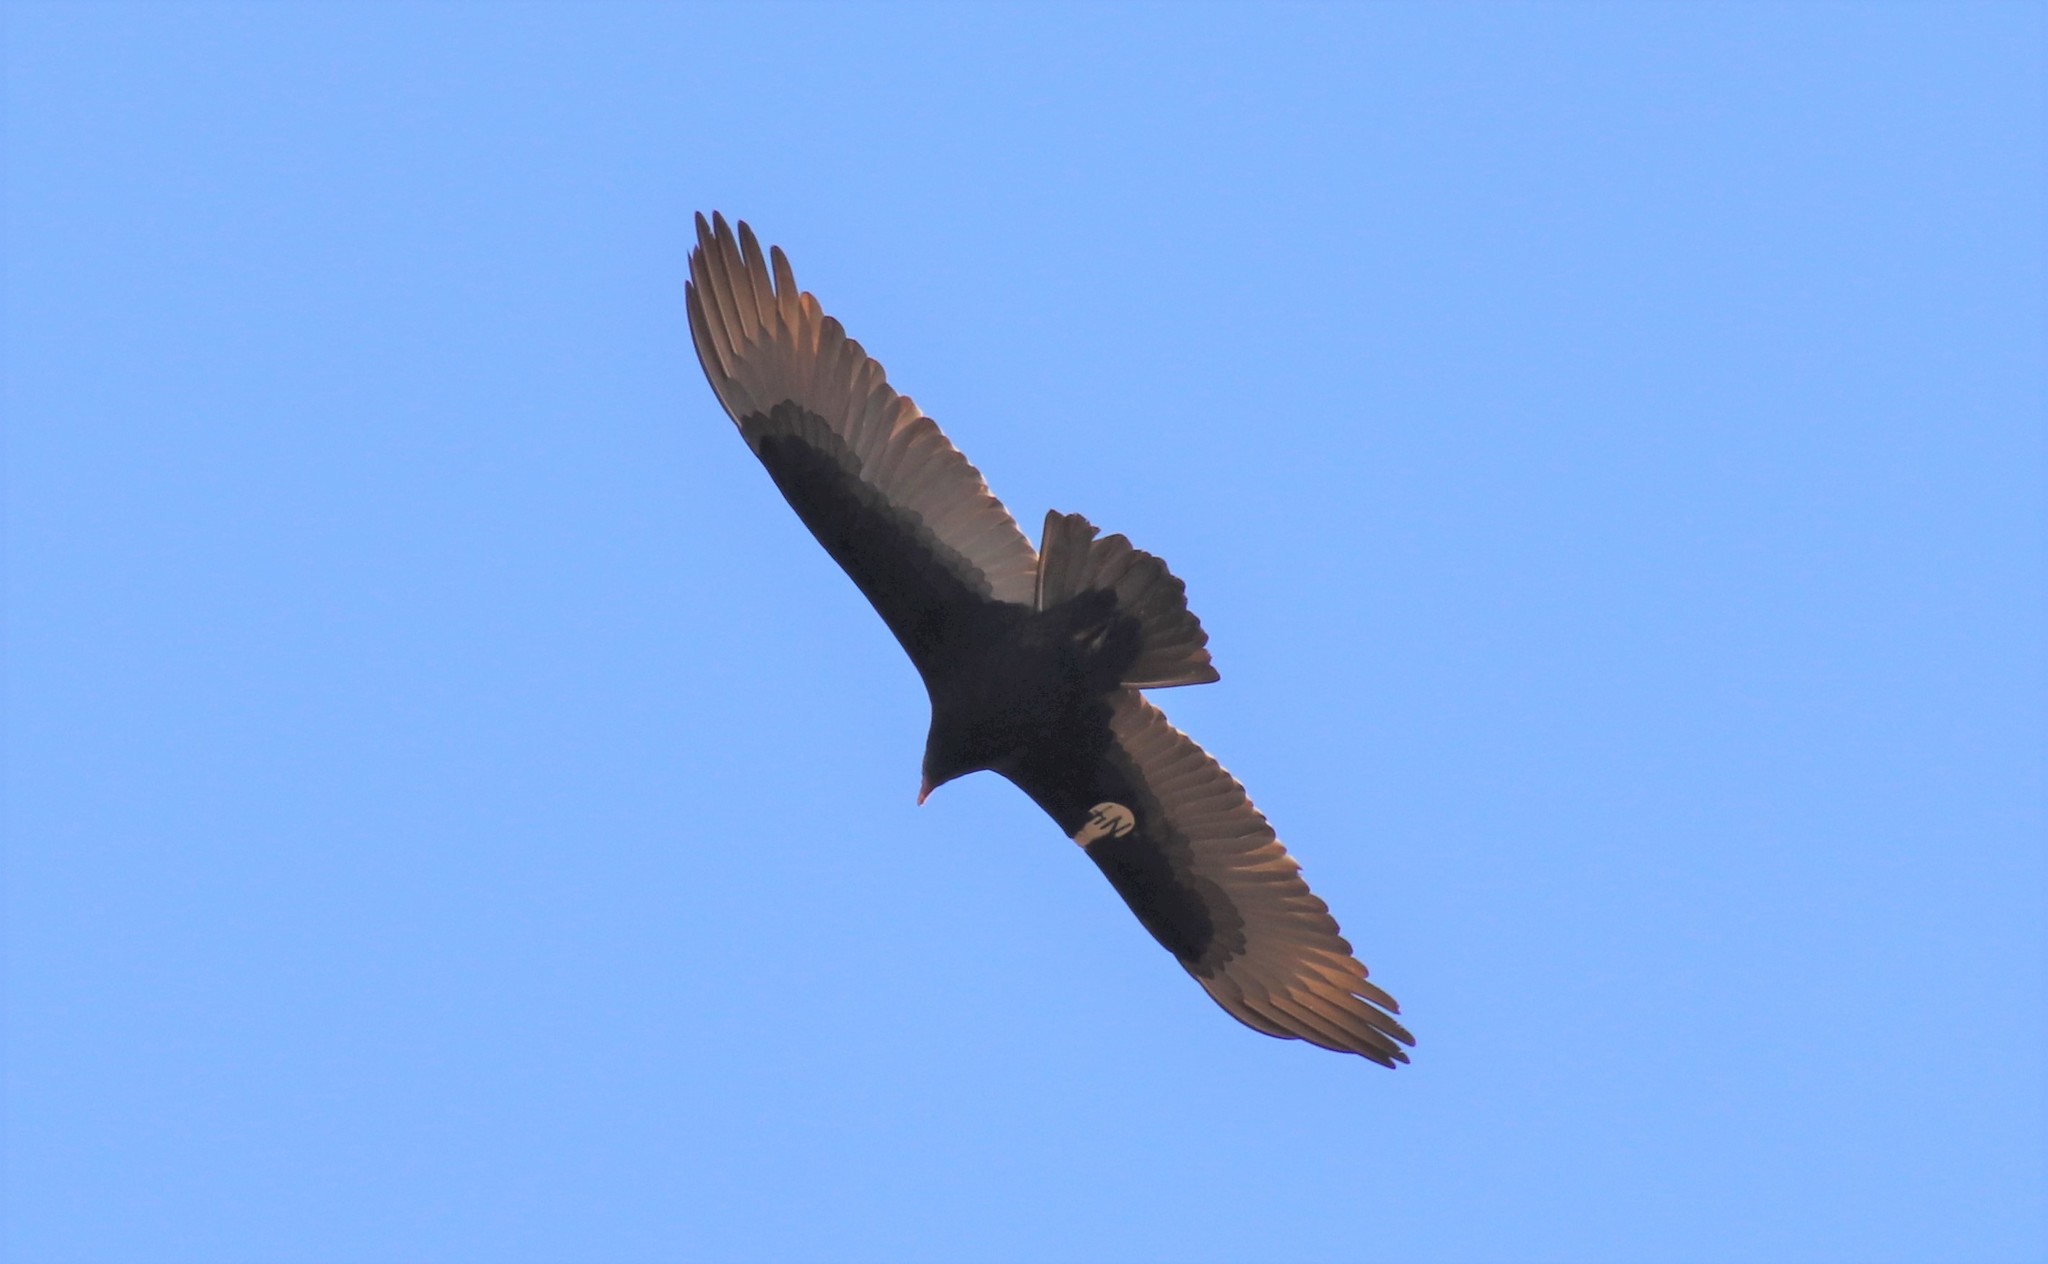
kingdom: Animalia
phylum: Chordata
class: Aves
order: Accipitriformes
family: Cathartidae
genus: Cathartes
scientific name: Cathartes aura
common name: Turkey vulture
